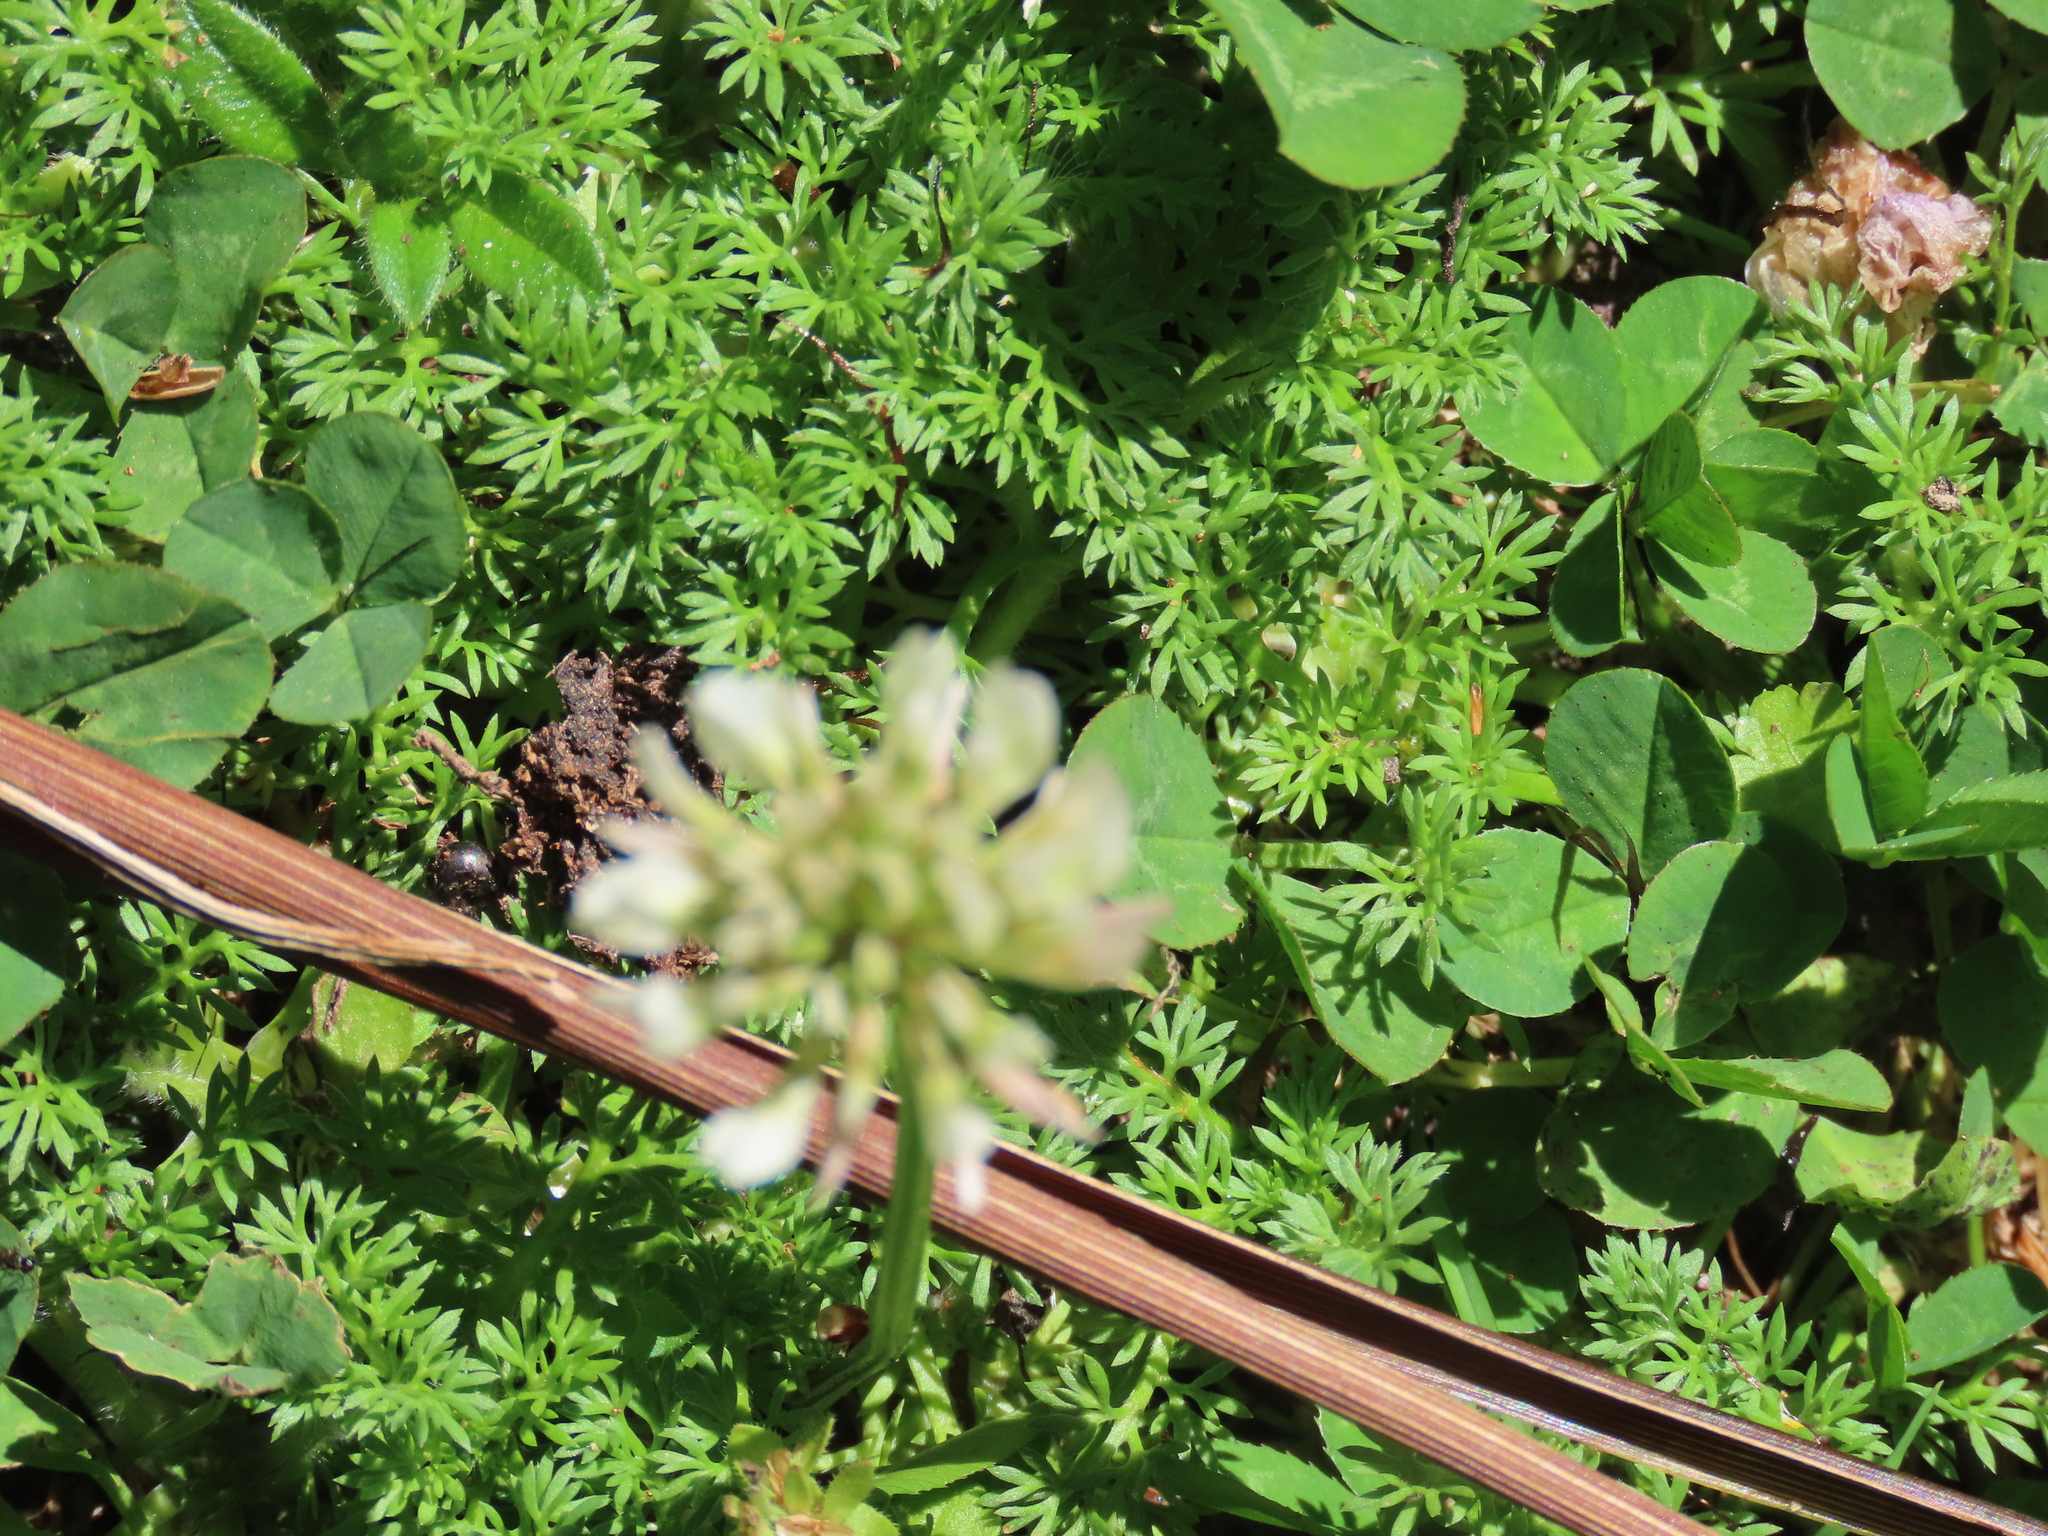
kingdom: Plantae
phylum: Tracheophyta
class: Magnoliopsida
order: Fabales
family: Fabaceae
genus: Trifolium
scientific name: Trifolium repens
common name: White clover
